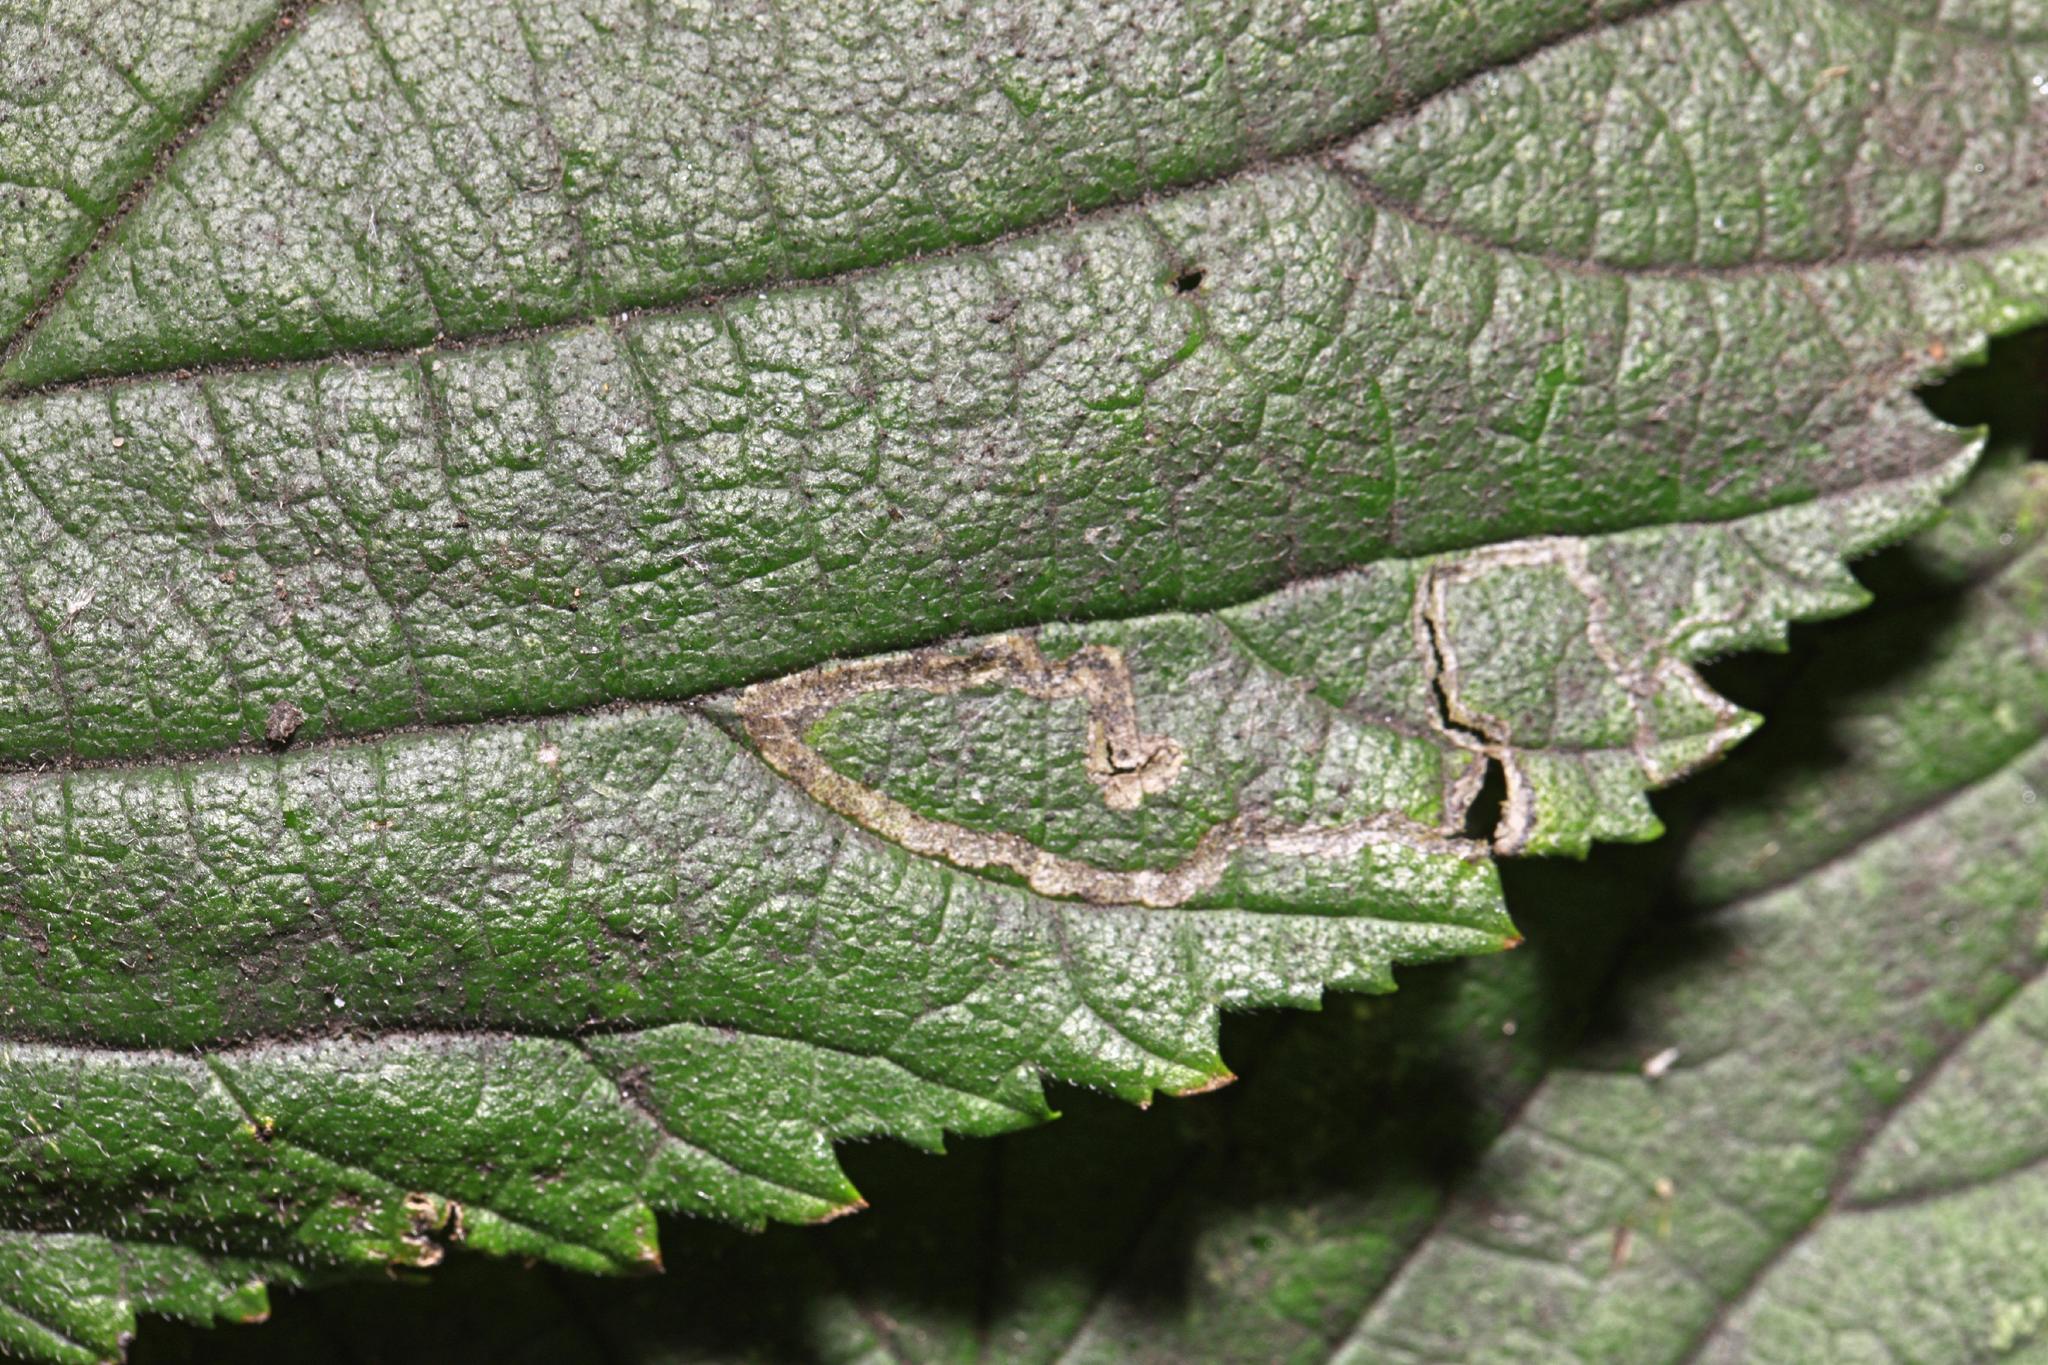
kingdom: Animalia
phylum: Arthropoda
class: Insecta
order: Lepidoptera
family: Nepticulidae
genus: Stigmella
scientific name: Stigmella ulmivora
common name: Barred elm pigmy
